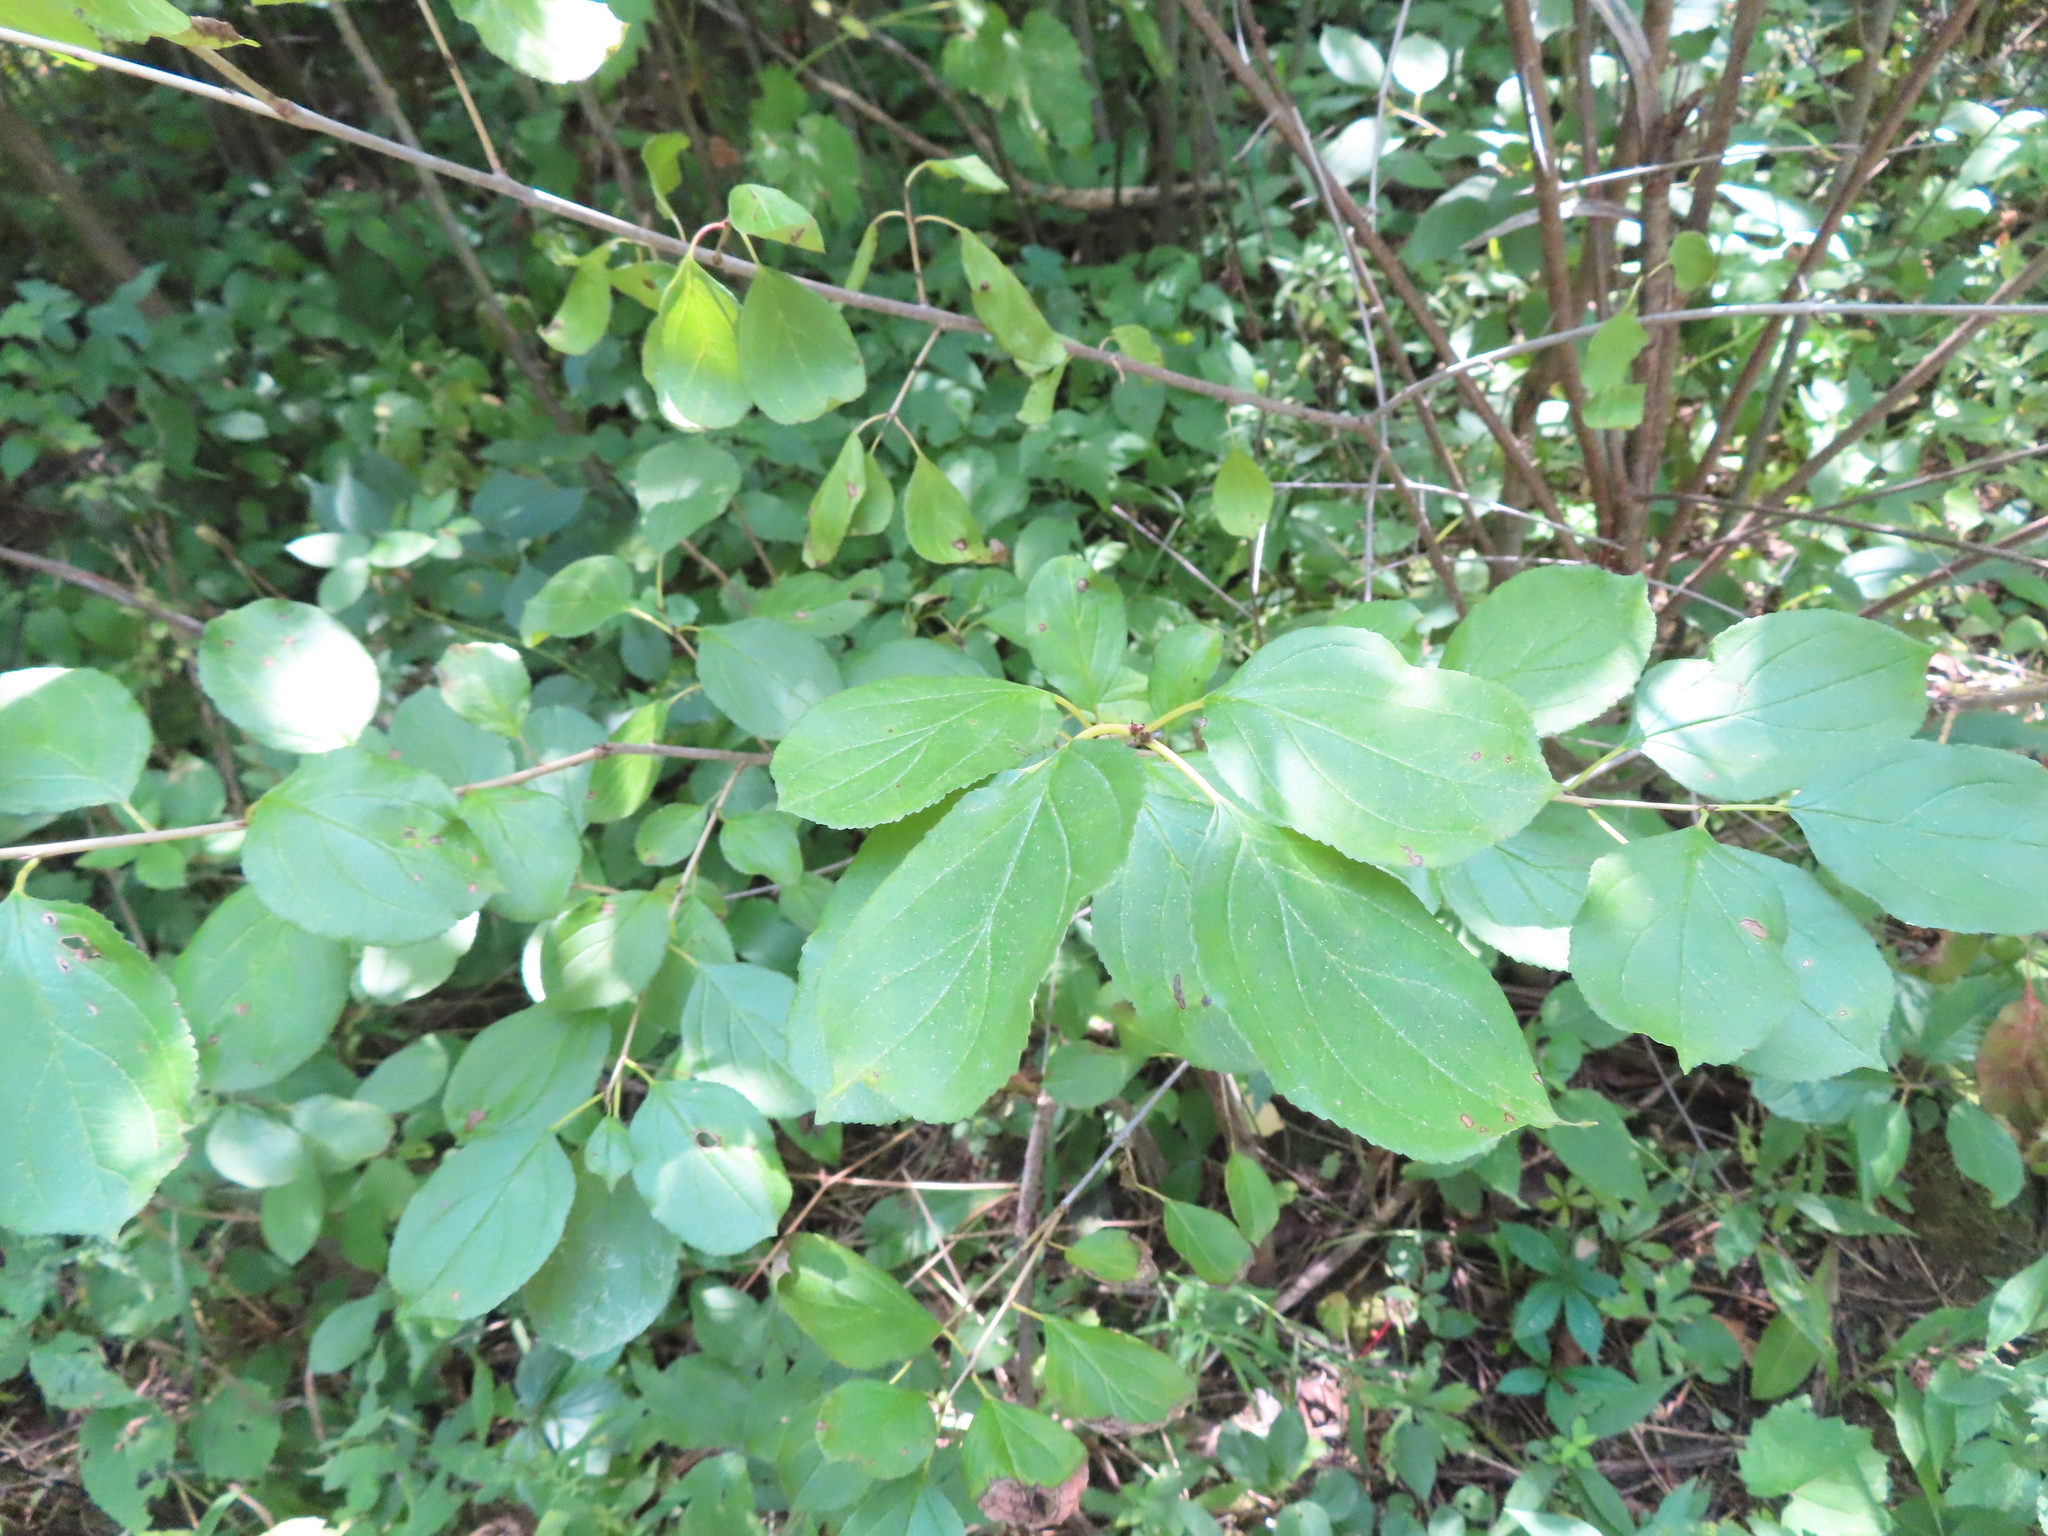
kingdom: Plantae
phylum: Tracheophyta
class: Magnoliopsida
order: Rosales
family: Rhamnaceae
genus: Rhamnus
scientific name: Rhamnus cathartica
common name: Common buckthorn
